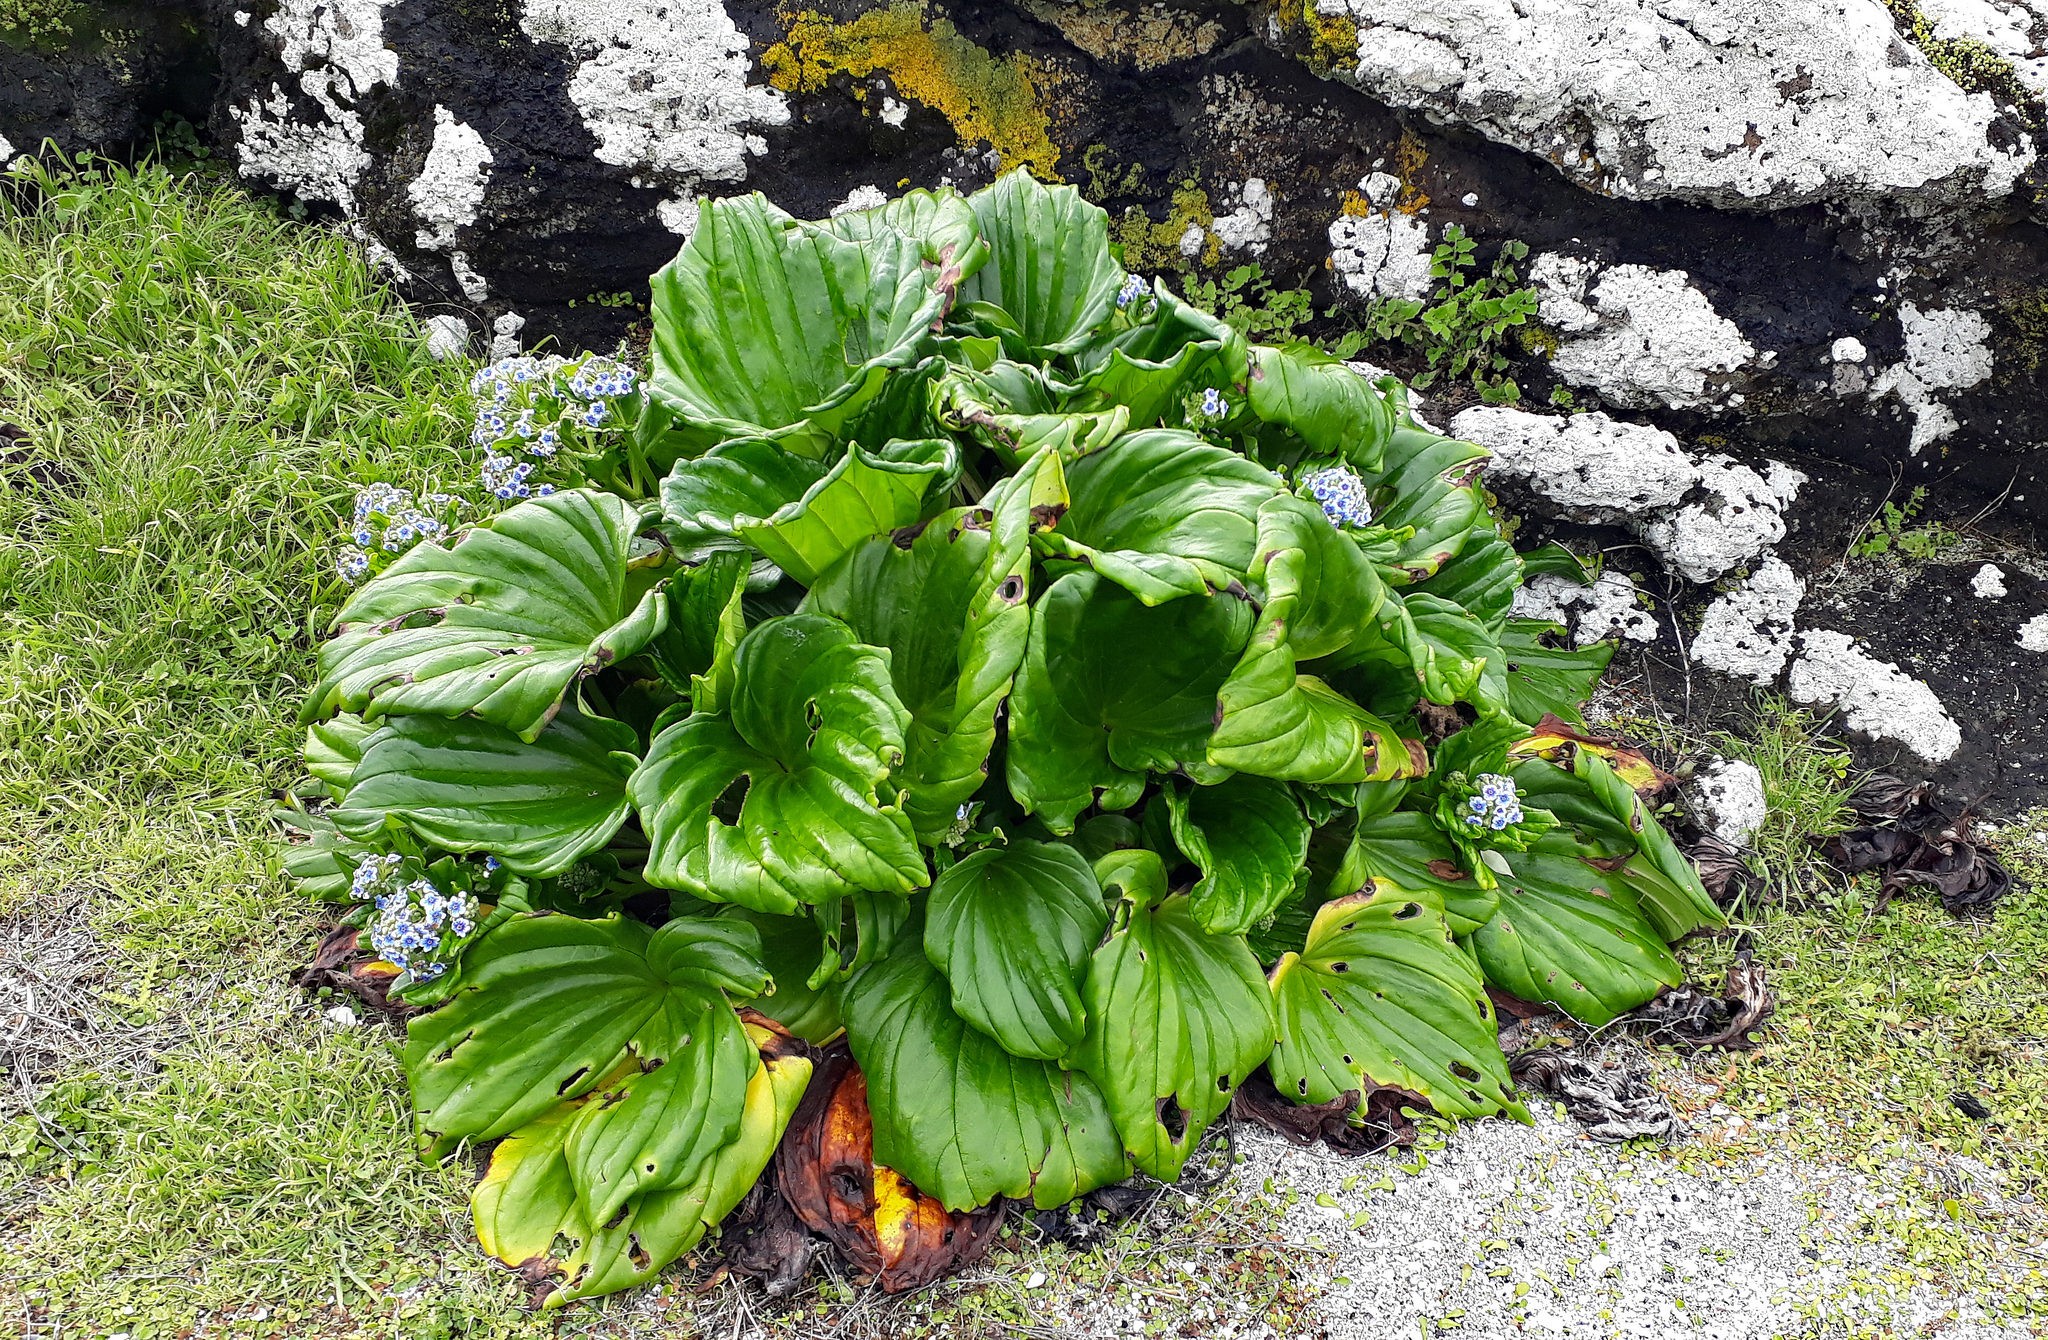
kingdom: Plantae
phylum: Tracheophyta
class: Magnoliopsida
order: Boraginales
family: Boraginaceae
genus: Myosotidium
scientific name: Myosotidium hortensia
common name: Giant forget-me-not
